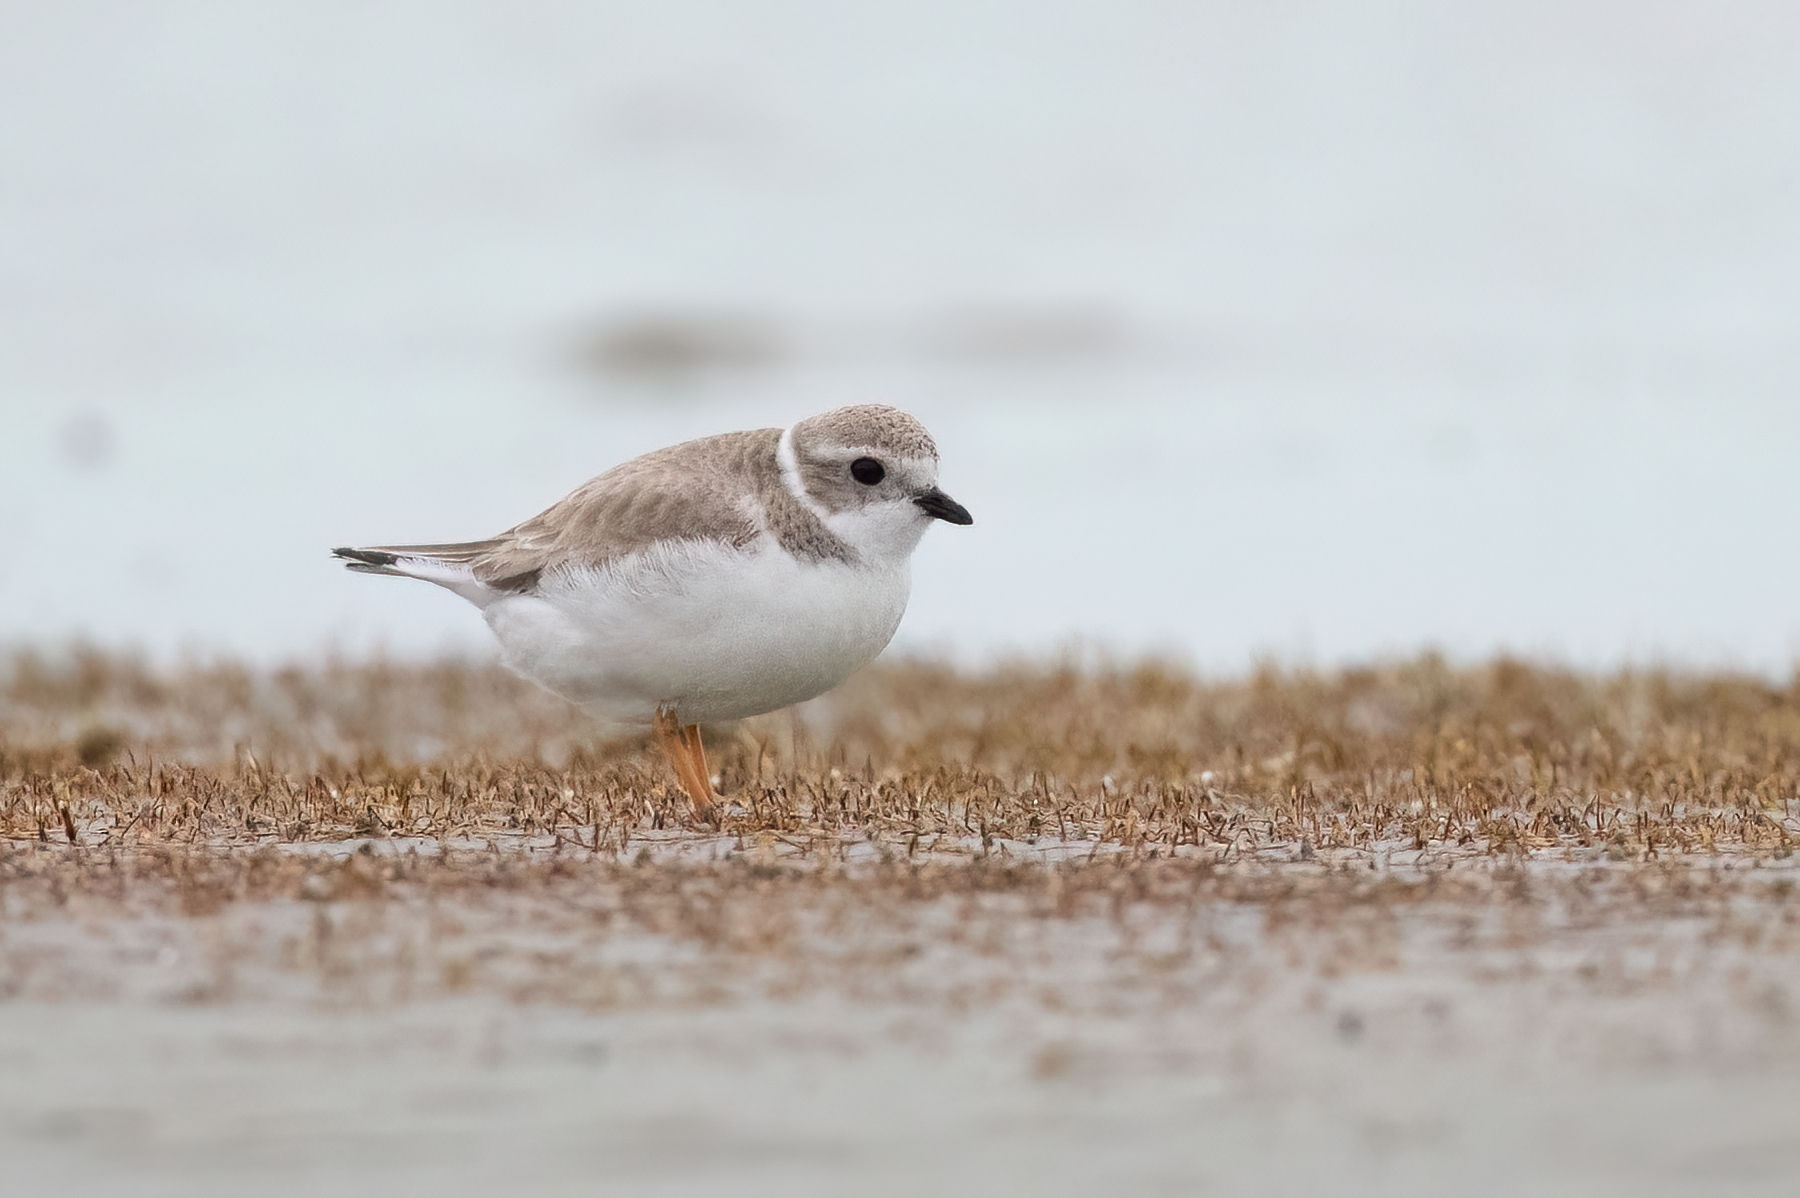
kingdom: Animalia
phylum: Chordata
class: Aves
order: Charadriiformes
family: Charadriidae
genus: Charadrius
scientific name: Charadrius melodus
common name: Piping plover
